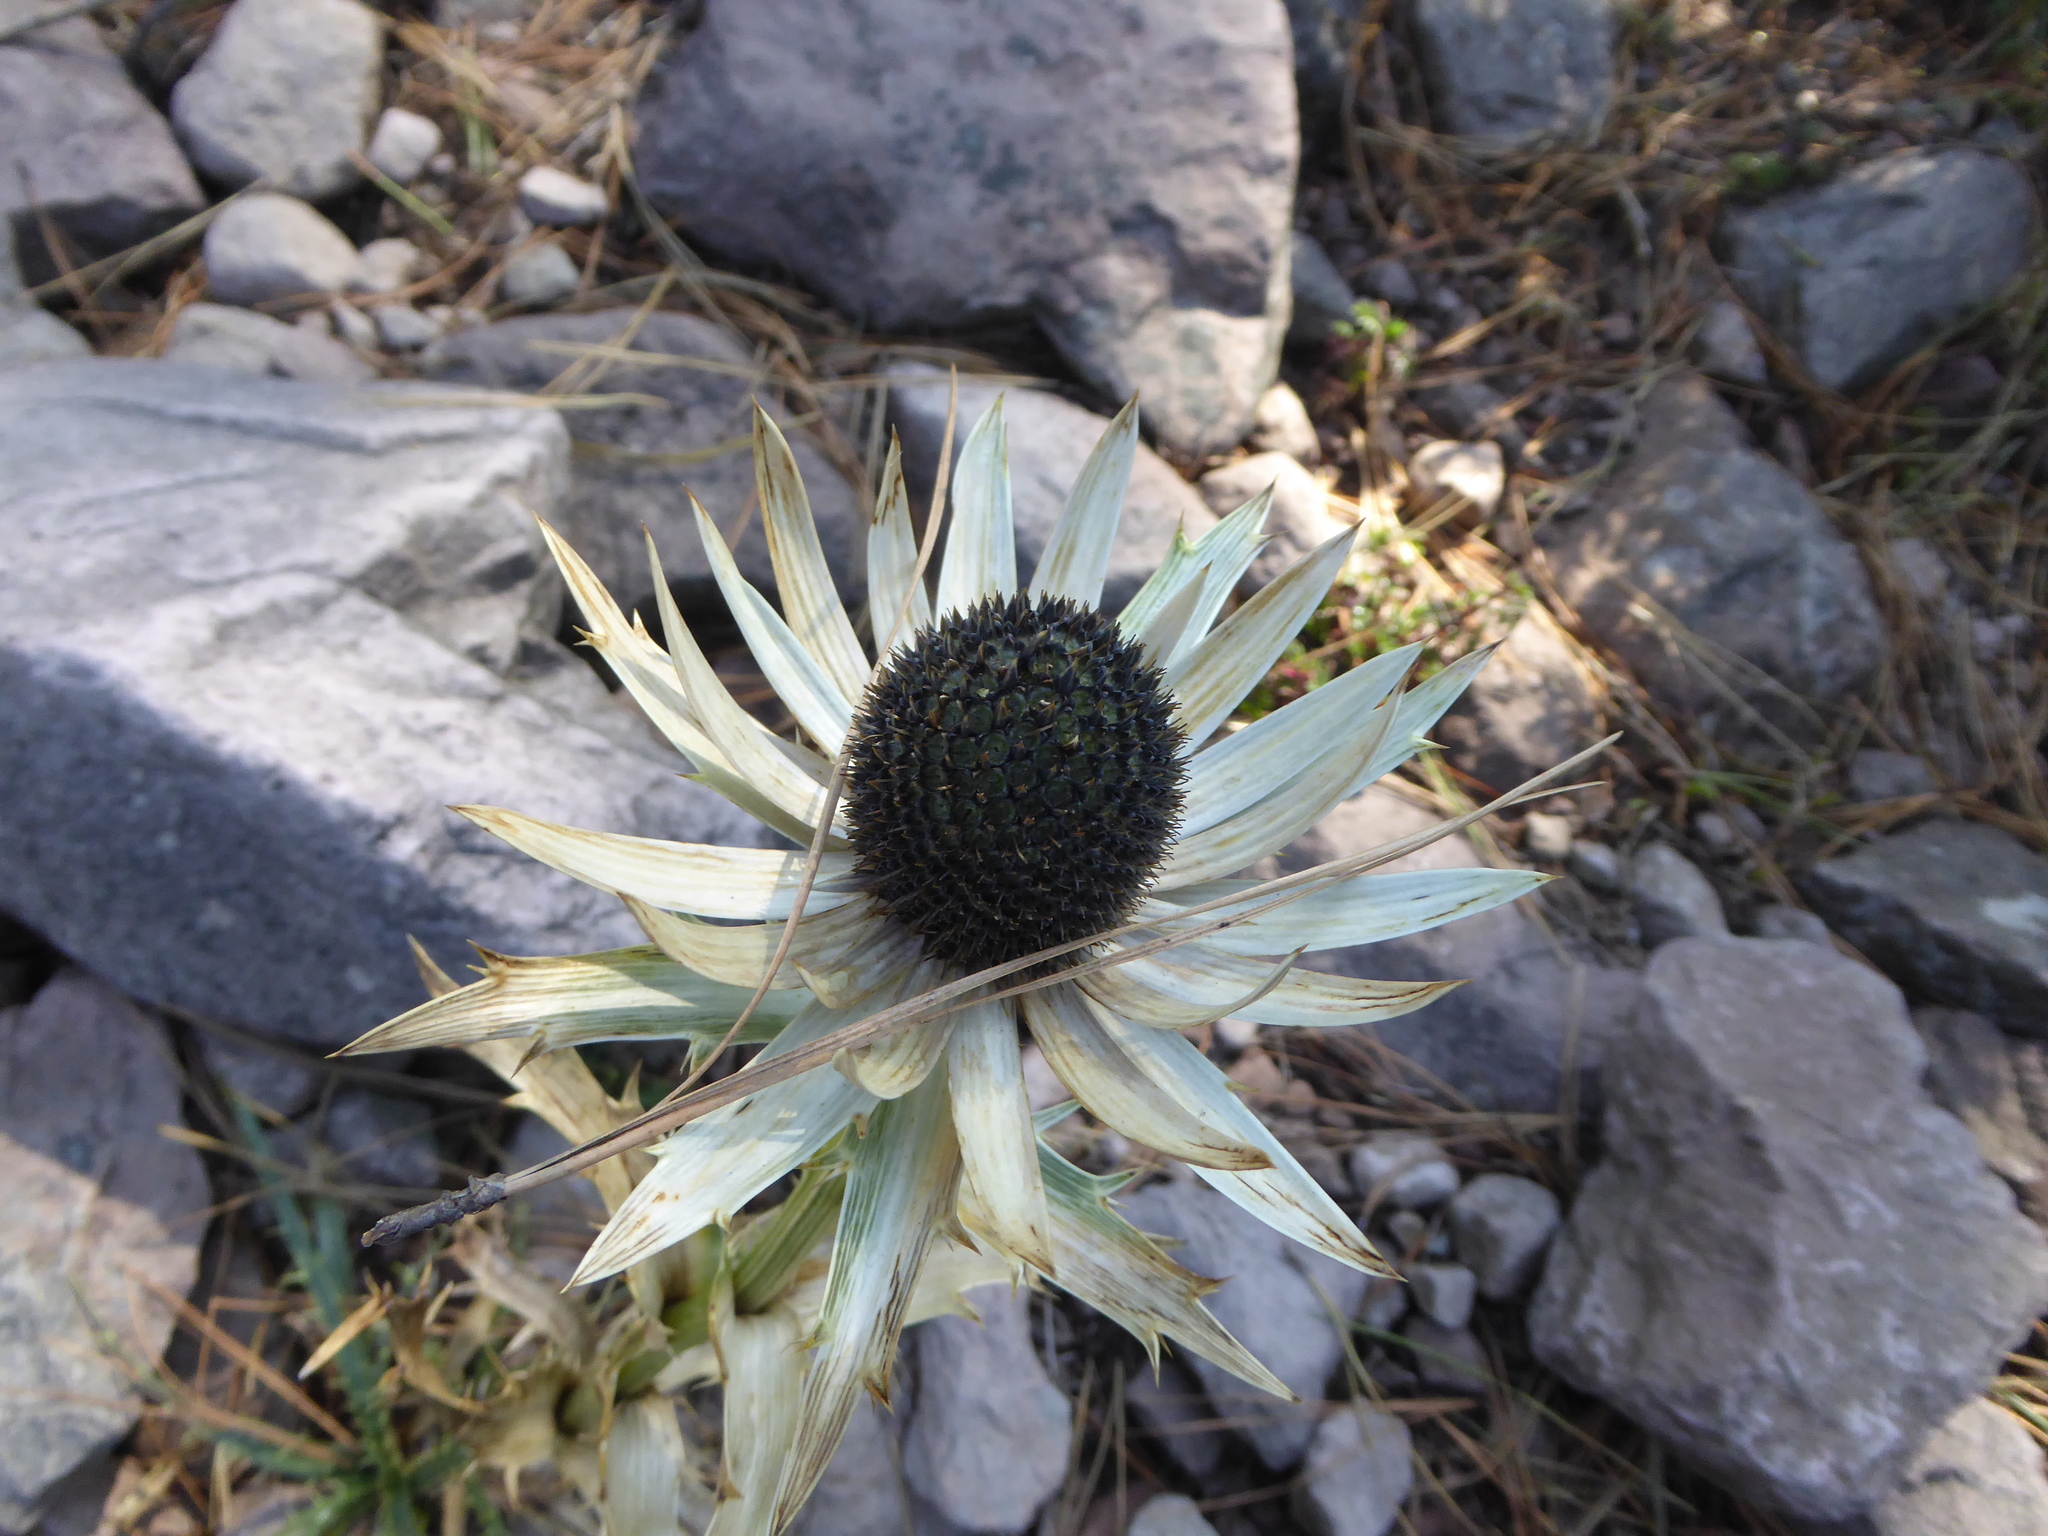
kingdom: Plantae
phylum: Tracheophyta
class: Magnoliopsida
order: Apiales
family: Apiaceae
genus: Eryngium
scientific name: Eryngium proteiflorum
